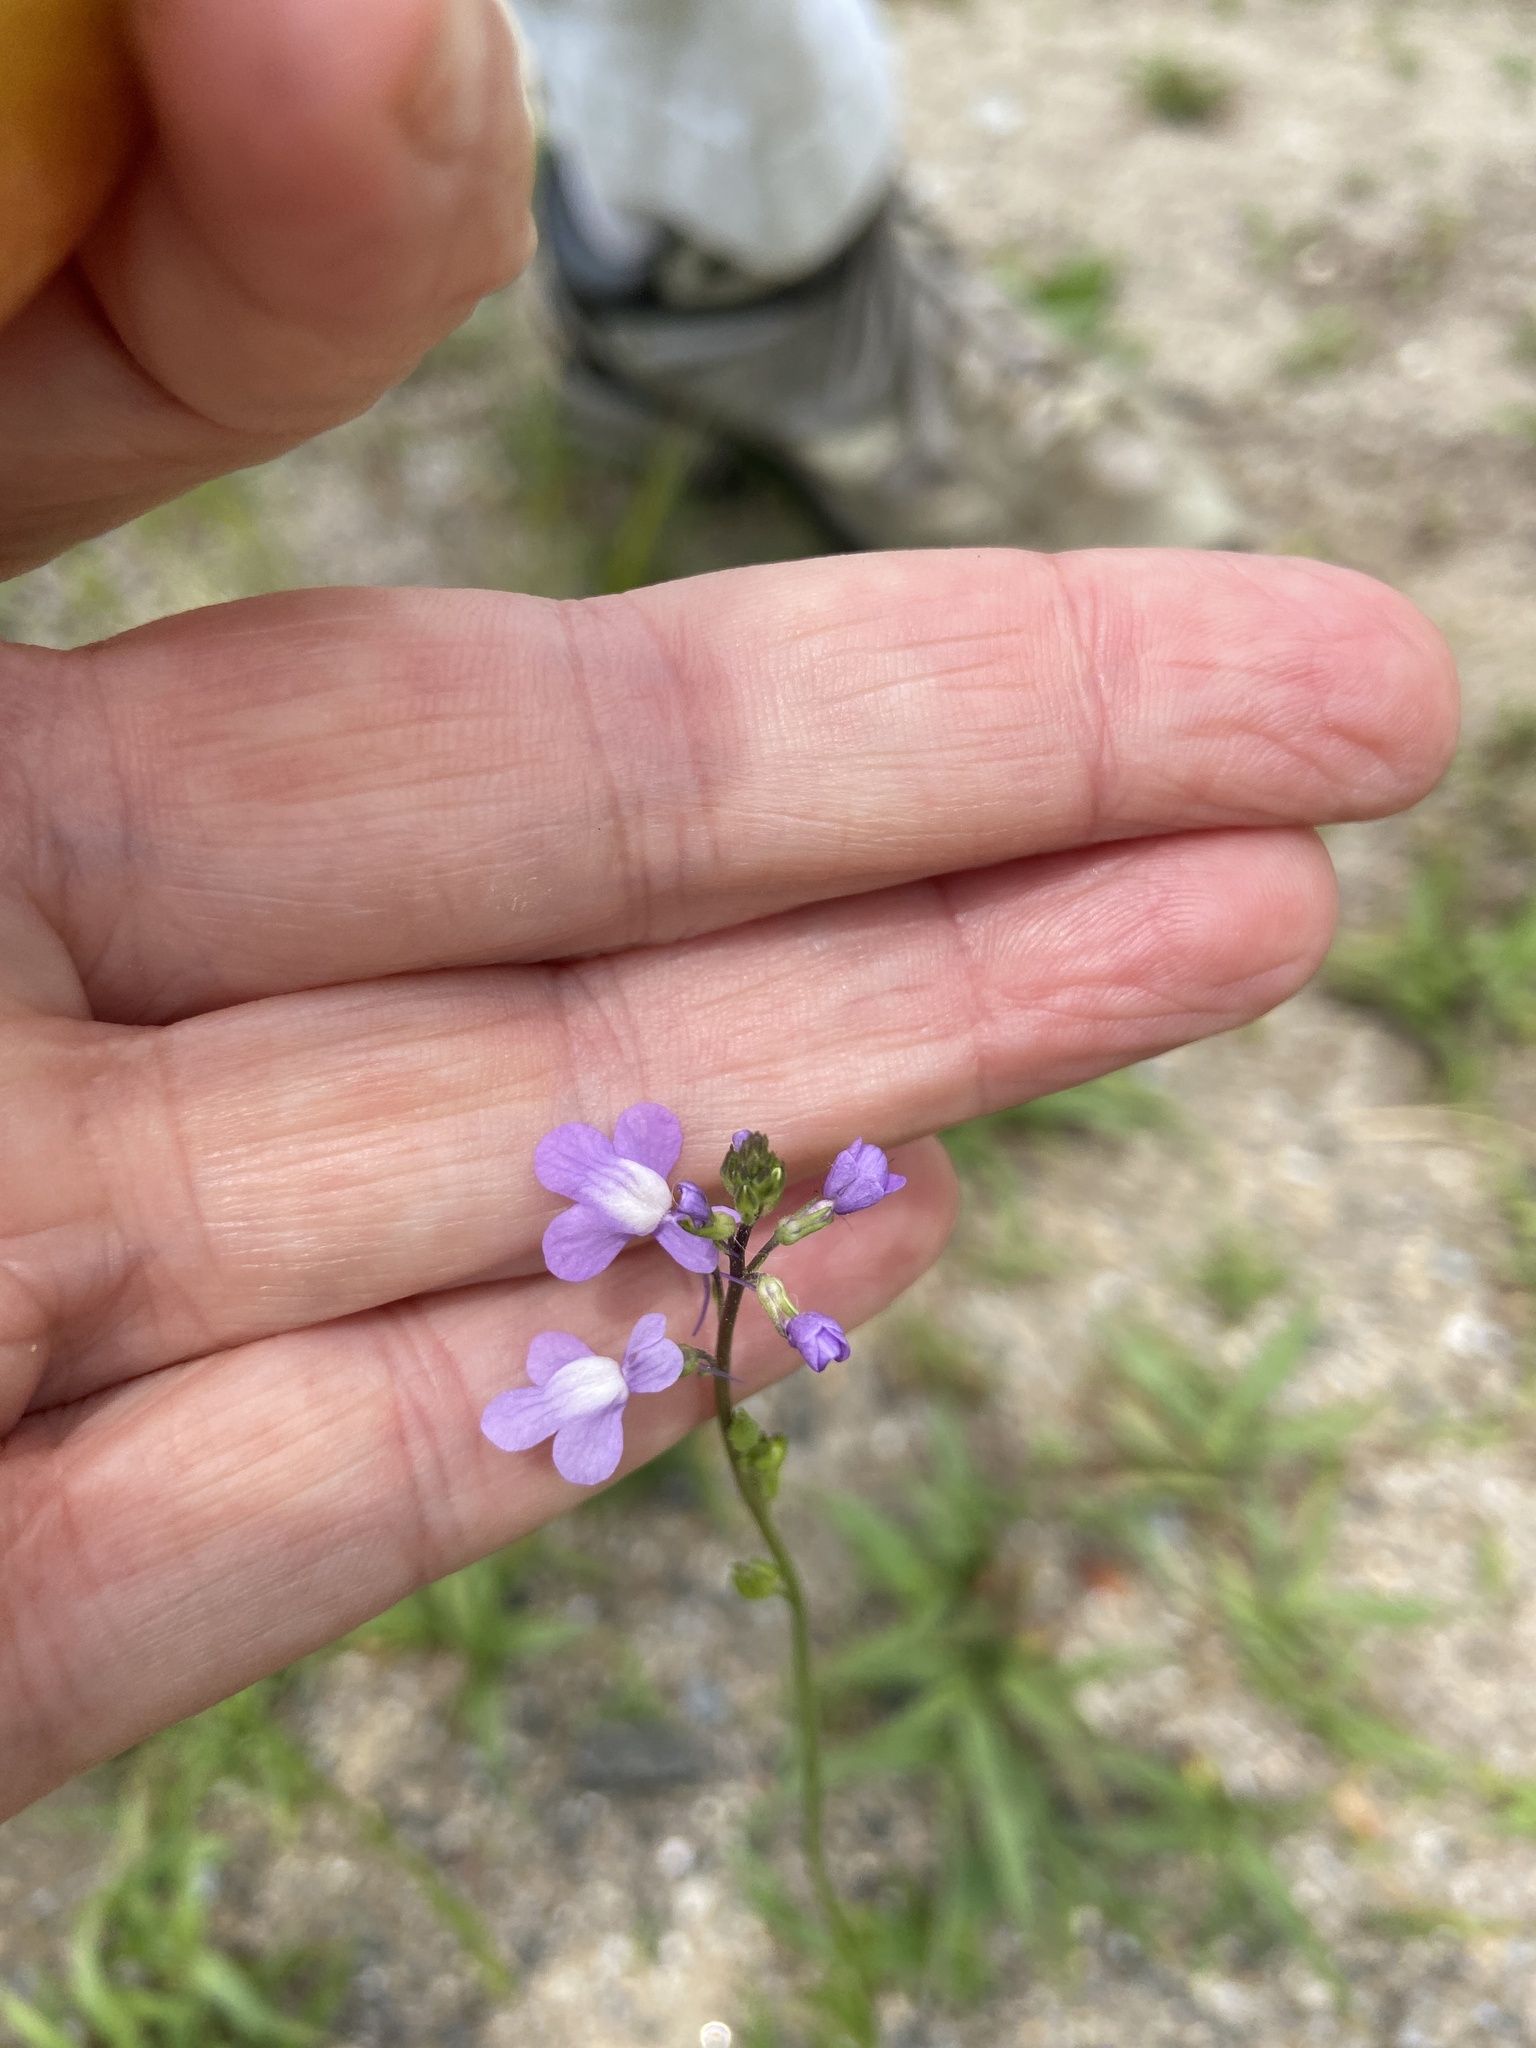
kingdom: Plantae
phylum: Tracheophyta
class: Magnoliopsida
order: Lamiales
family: Plantaginaceae
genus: Nuttallanthus
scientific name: Nuttallanthus canadensis
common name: Blue toadflax
